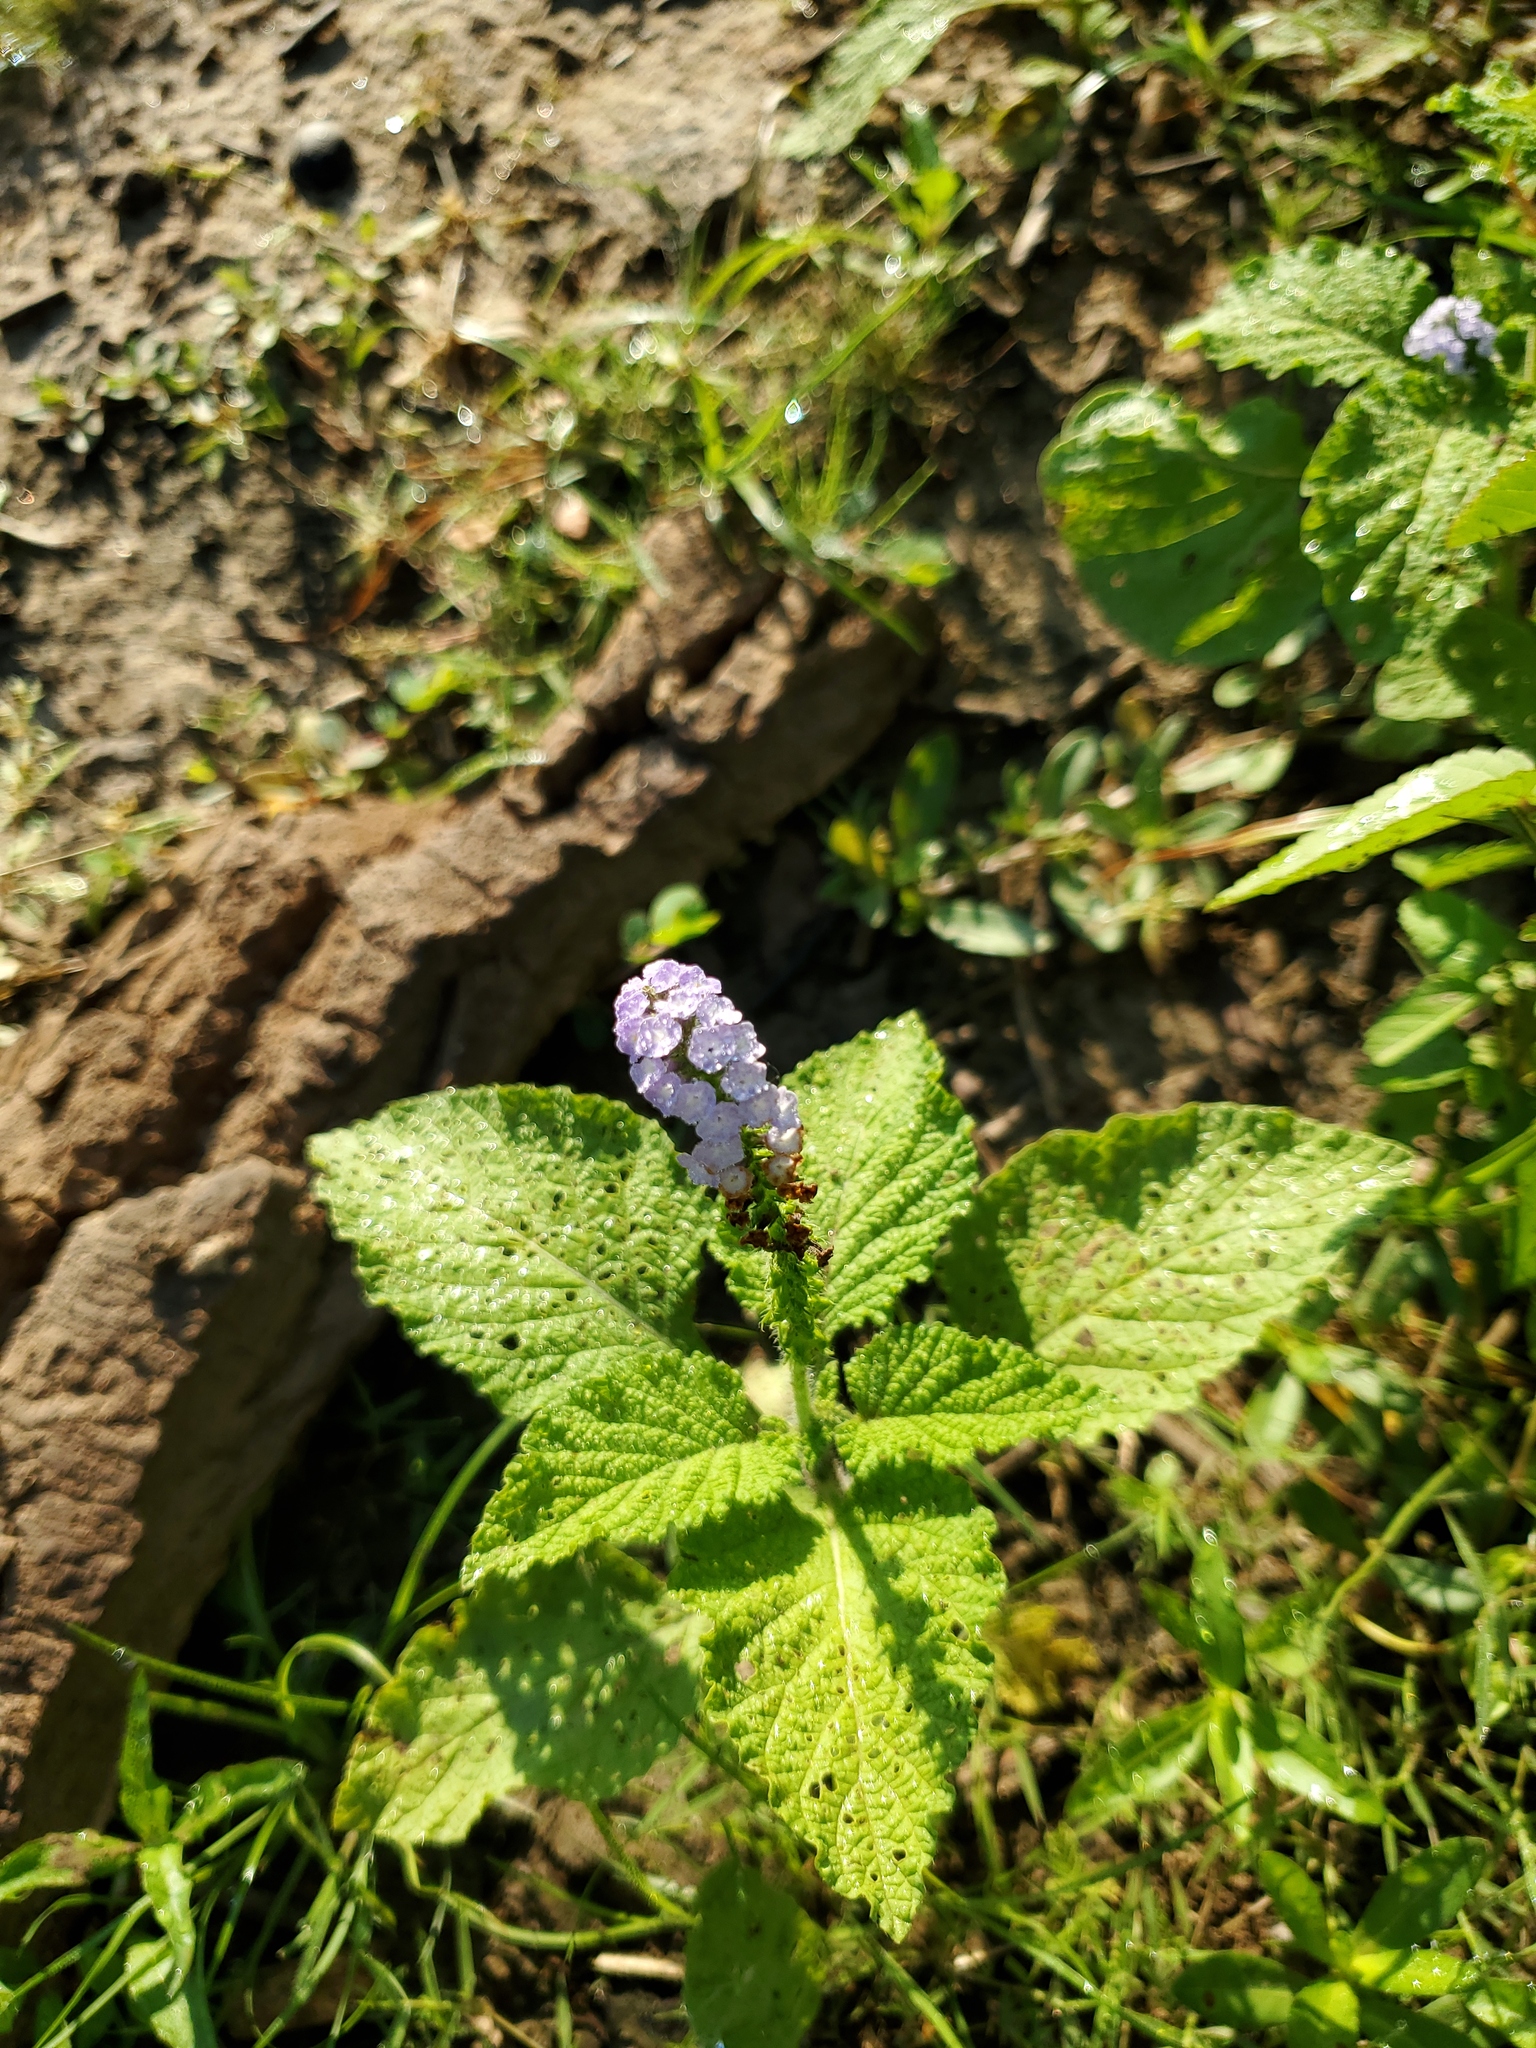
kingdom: Plantae
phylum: Tracheophyta
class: Magnoliopsida
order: Boraginales
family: Heliotropiaceae
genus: Heliotropium
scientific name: Heliotropium indicum
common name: Indian heliotrope
